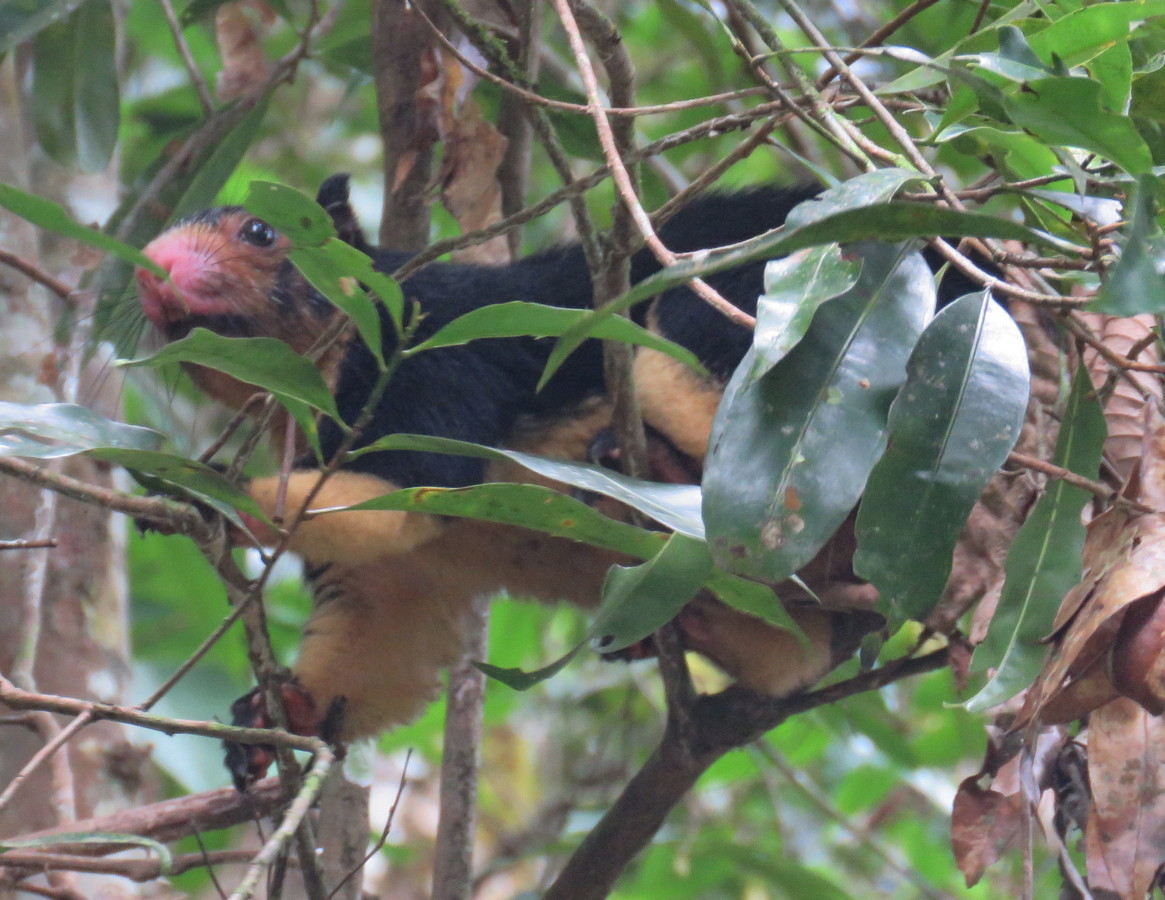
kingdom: Animalia
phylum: Chordata
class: Mammalia
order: Rodentia
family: Sciuridae
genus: Ratufa
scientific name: Ratufa macroura
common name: Sri lankan giant squirrel
